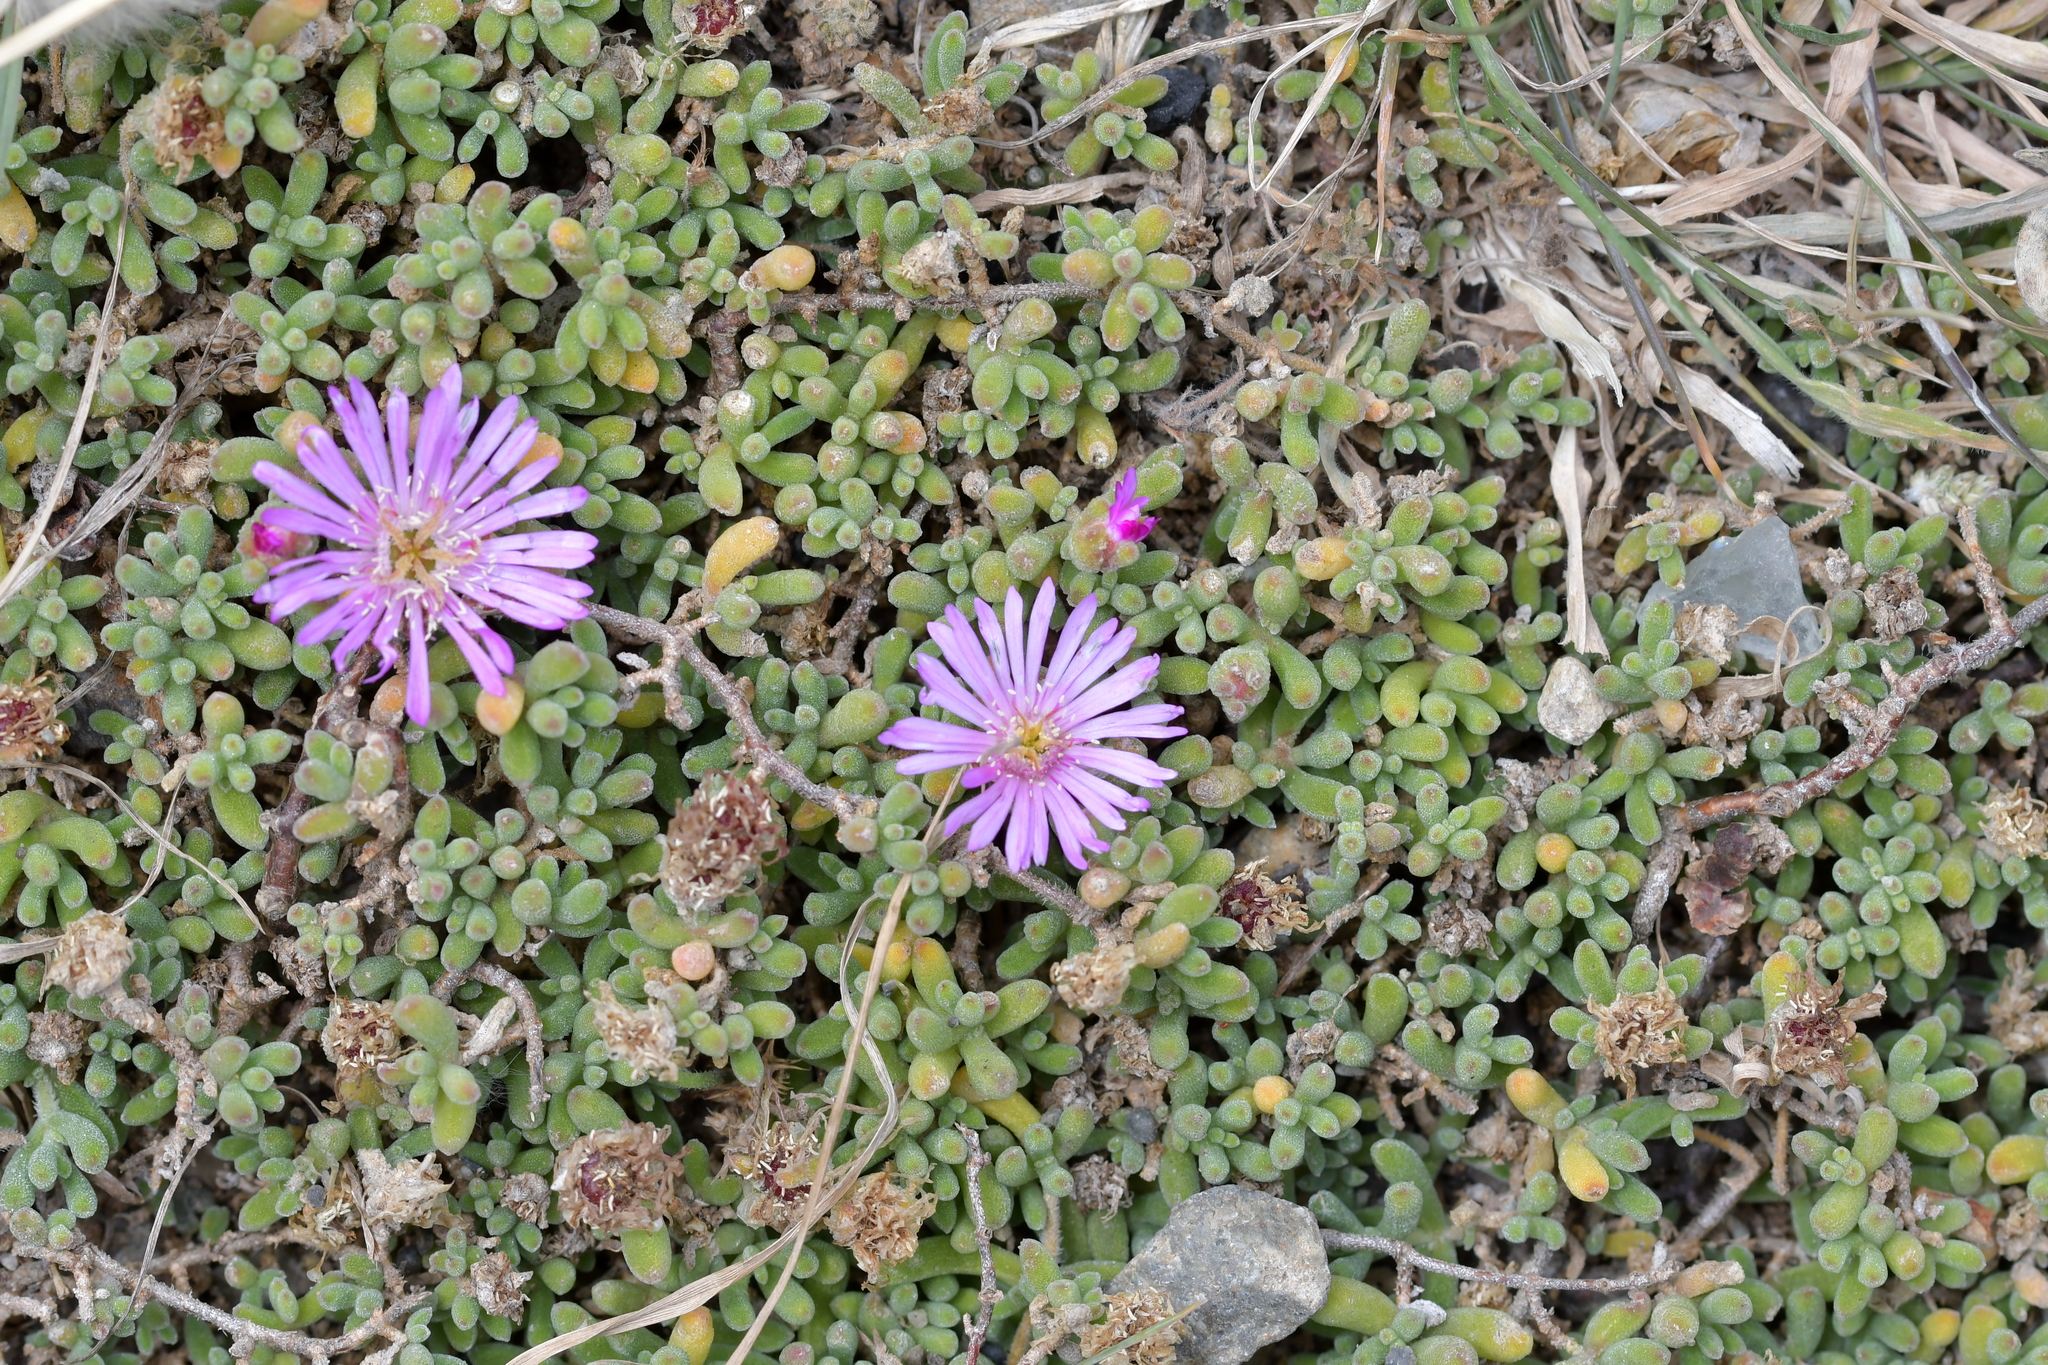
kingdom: Plantae
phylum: Tracheophyta
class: Magnoliopsida
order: Caryophyllales
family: Aizoaceae
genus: Drosanthemum
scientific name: Drosanthemum floribundum
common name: Pale dewplant
